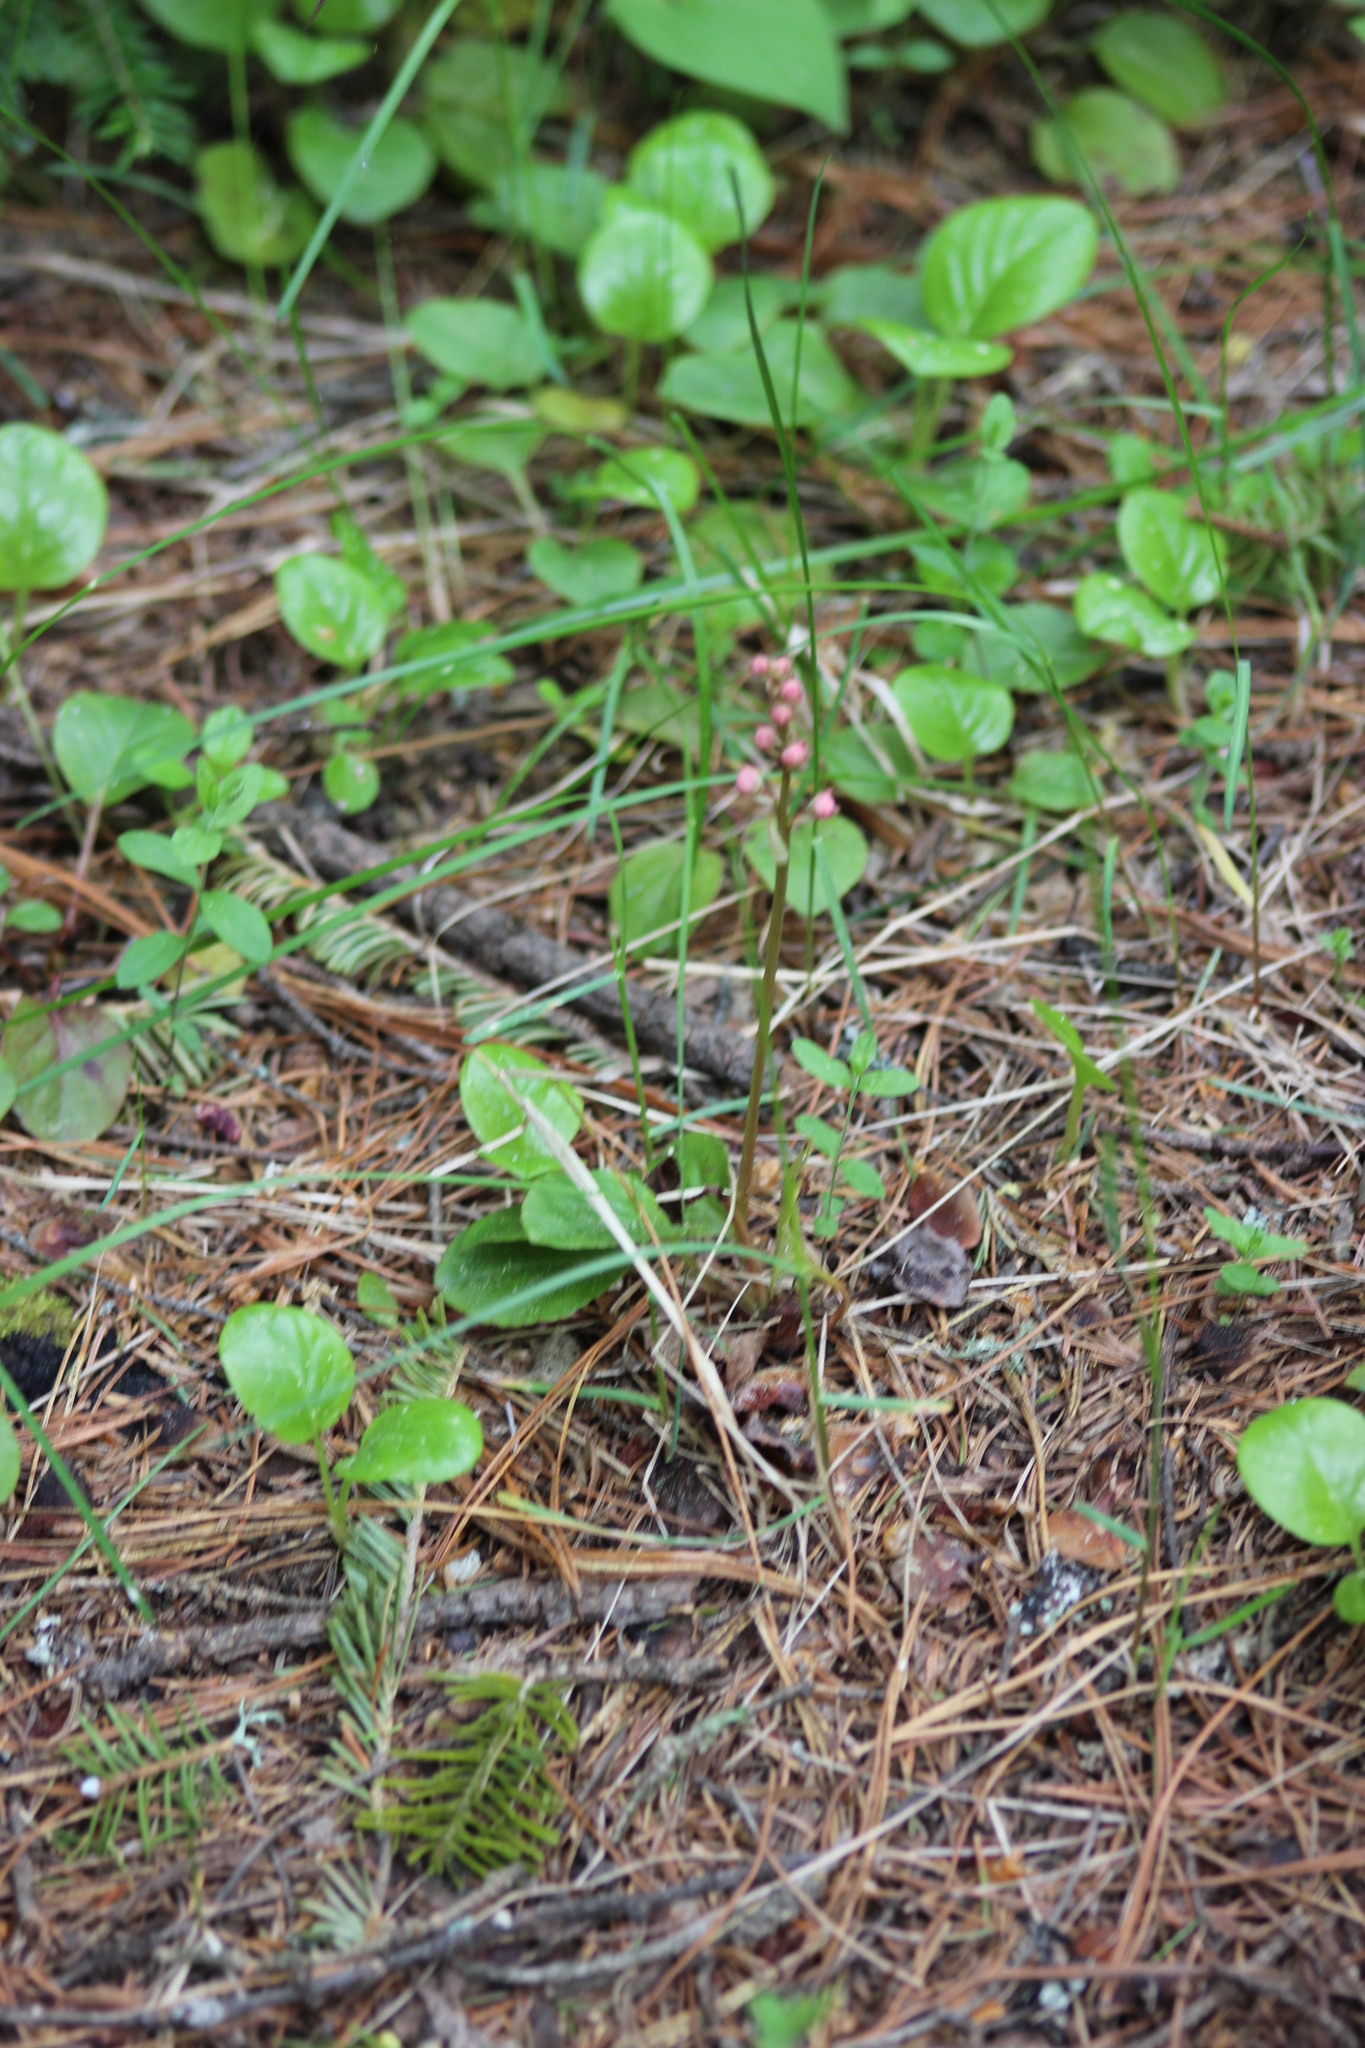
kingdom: Plantae
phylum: Tracheophyta
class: Magnoliopsida
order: Ericales
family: Ericaceae
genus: Pyrola
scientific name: Pyrola asarifolia
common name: Bog wintergreen
